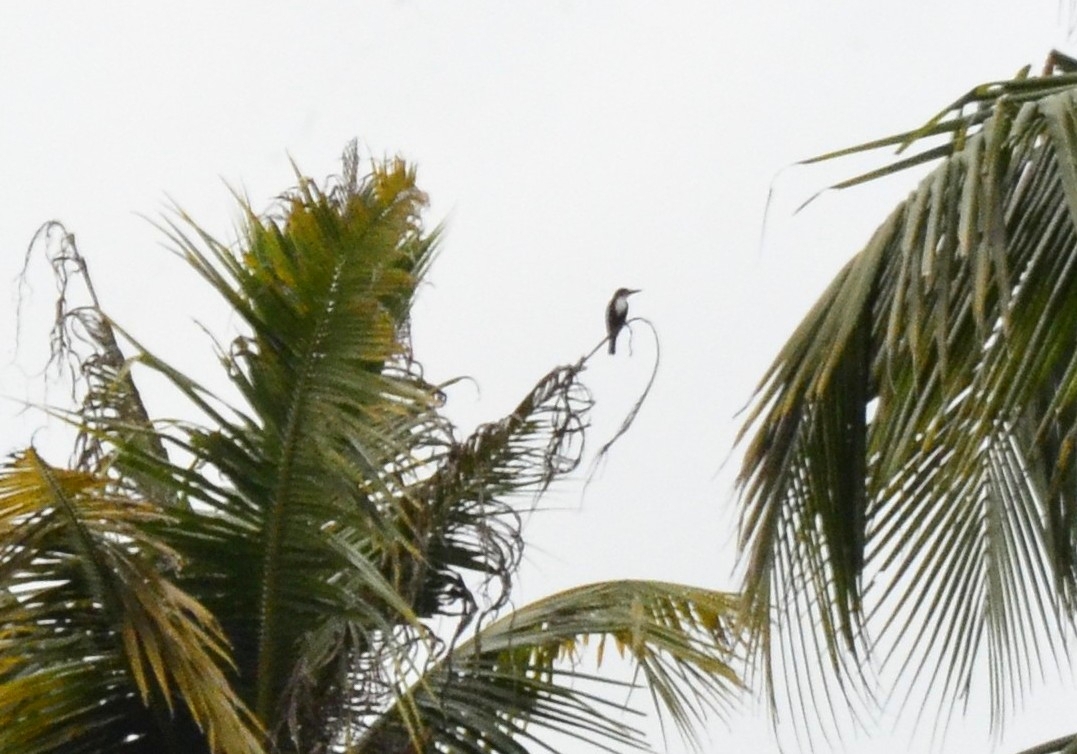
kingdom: Animalia
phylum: Chordata
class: Aves
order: Coraciiformes
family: Alcedinidae
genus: Halcyon
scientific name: Halcyon smyrnensis
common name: White-throated kingfisher
